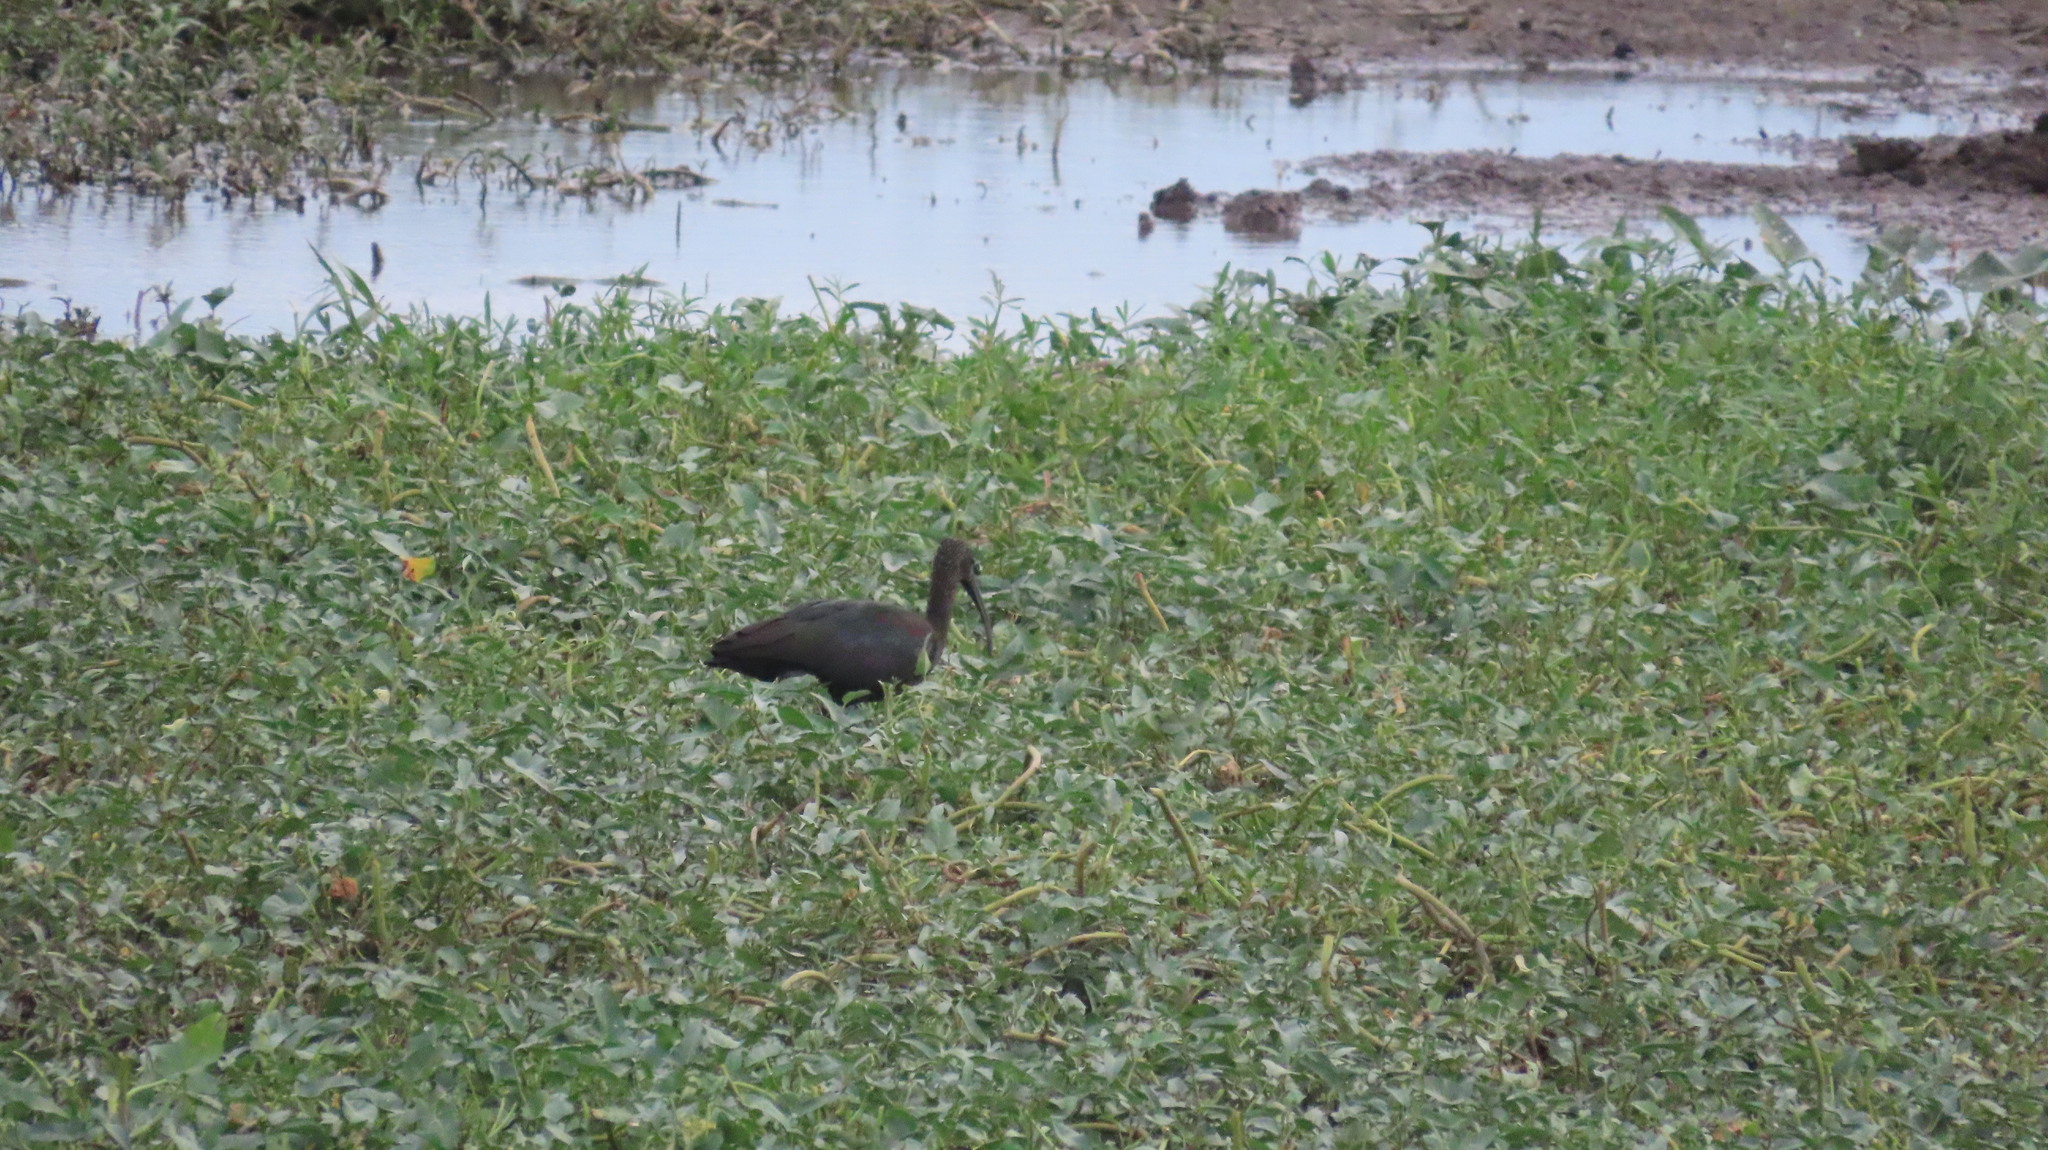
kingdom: Animalia
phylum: Chordata
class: Aves
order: Pelecaniformes
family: Threskiornithidae
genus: Plegadis
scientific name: Plegadis falcinellus
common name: Glossy ibis
